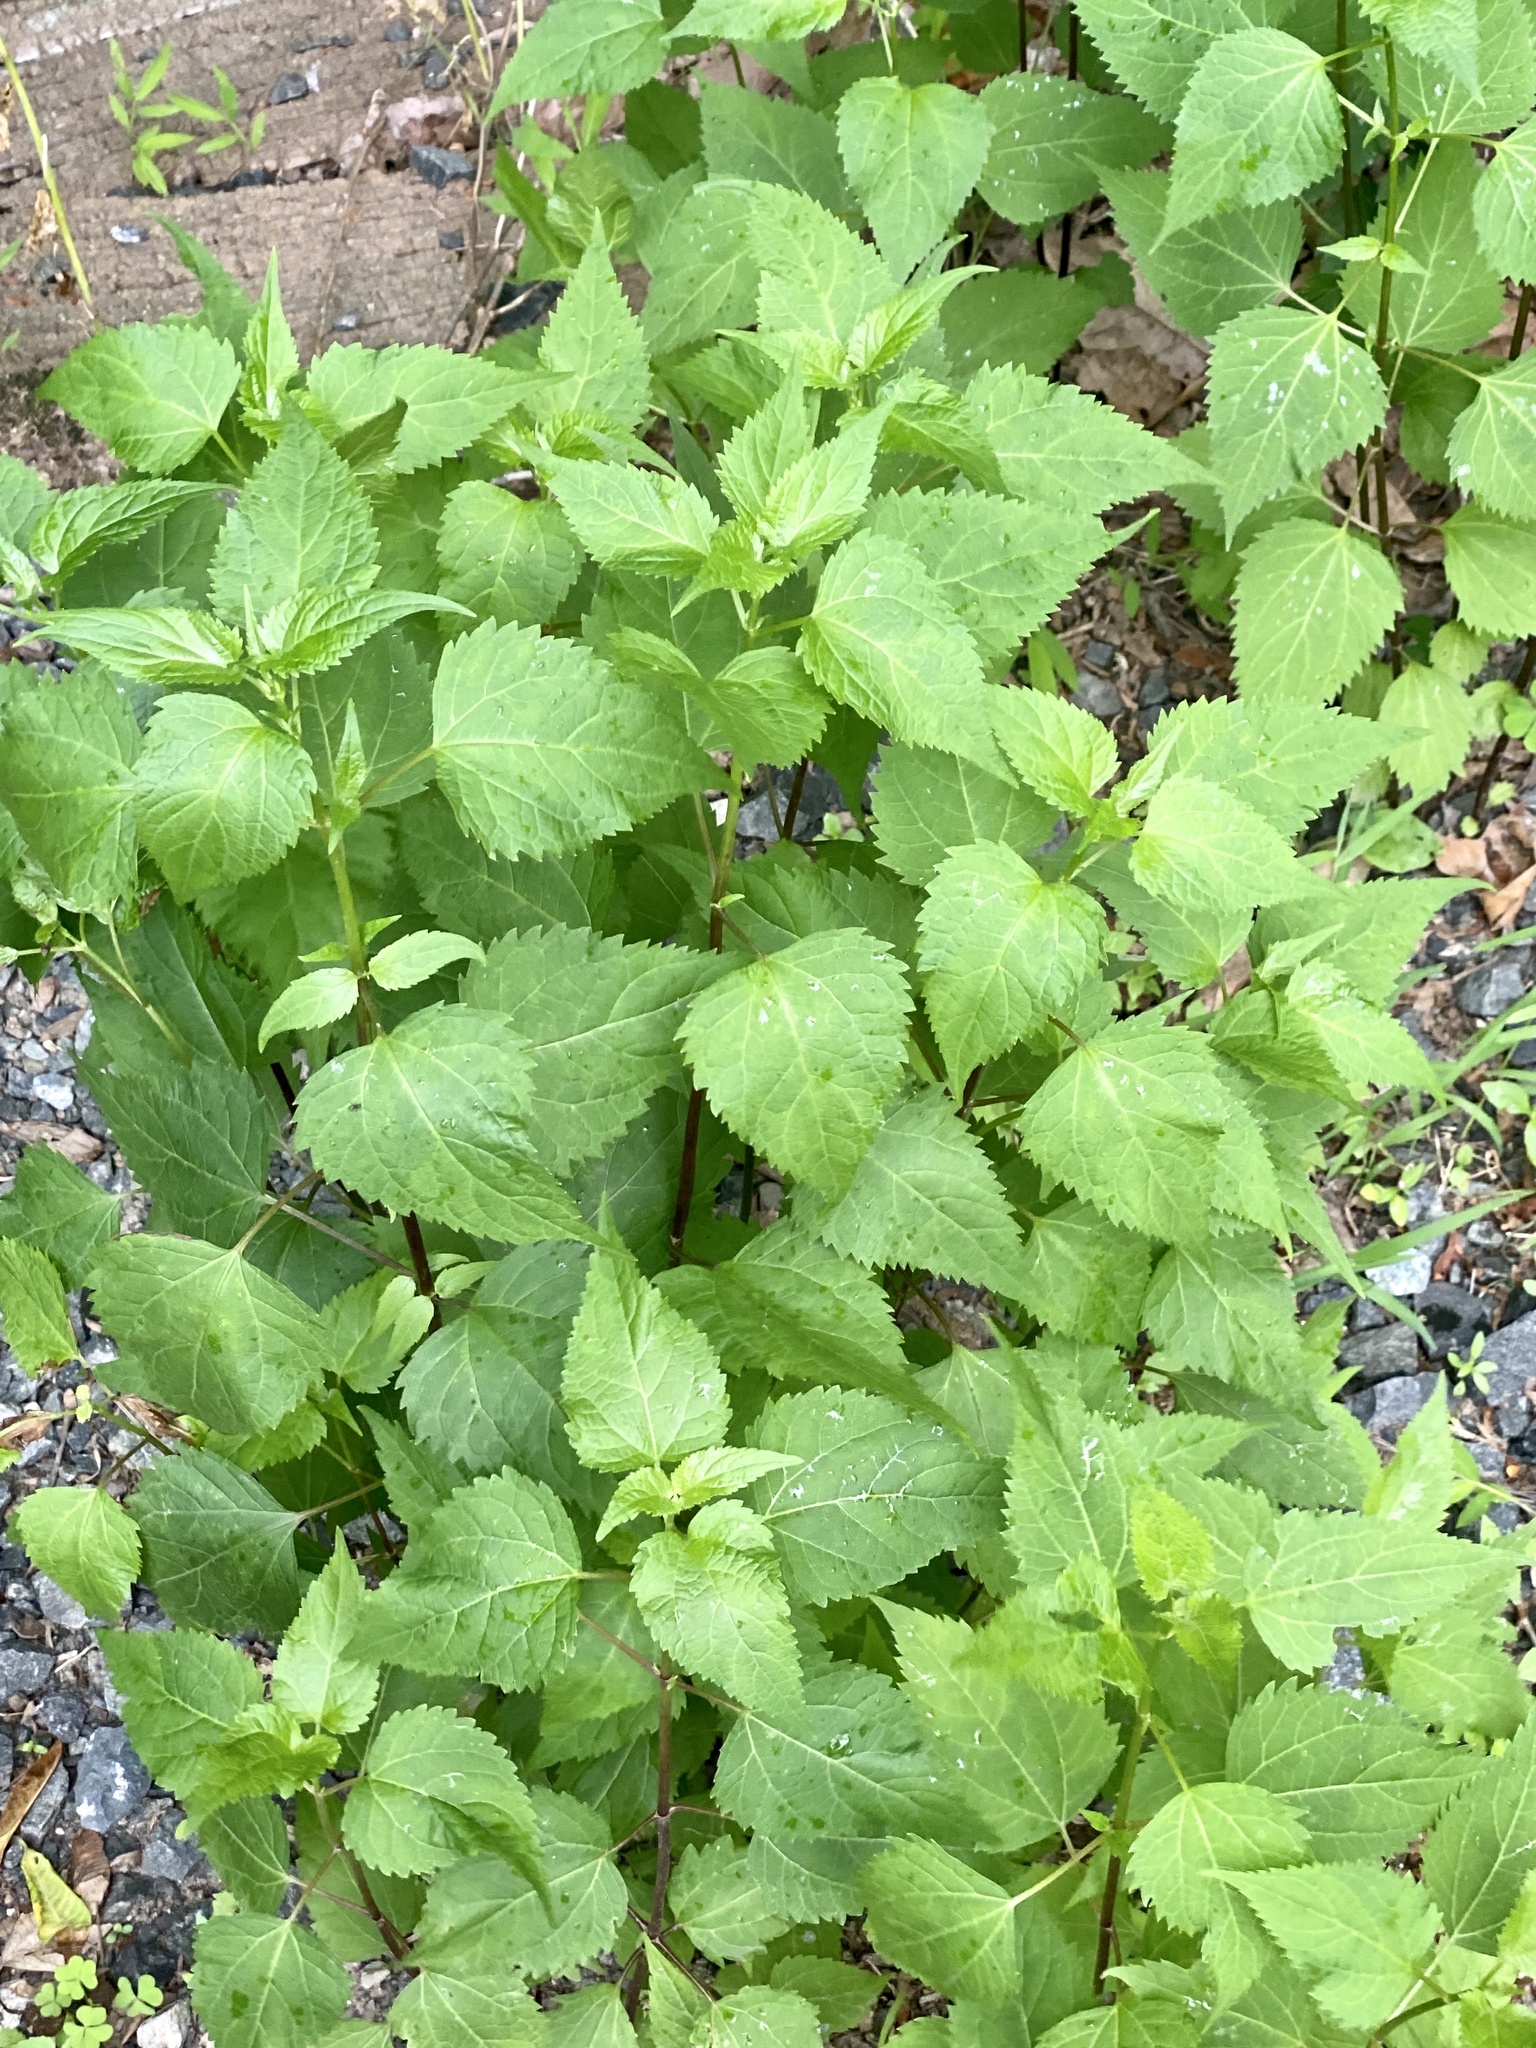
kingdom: Plantae
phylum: Tracheophyta
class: Magnoliopsida
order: Asterales
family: Asteraceae
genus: Ageratina
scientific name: Ageratina altissima
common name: White snakeroot
